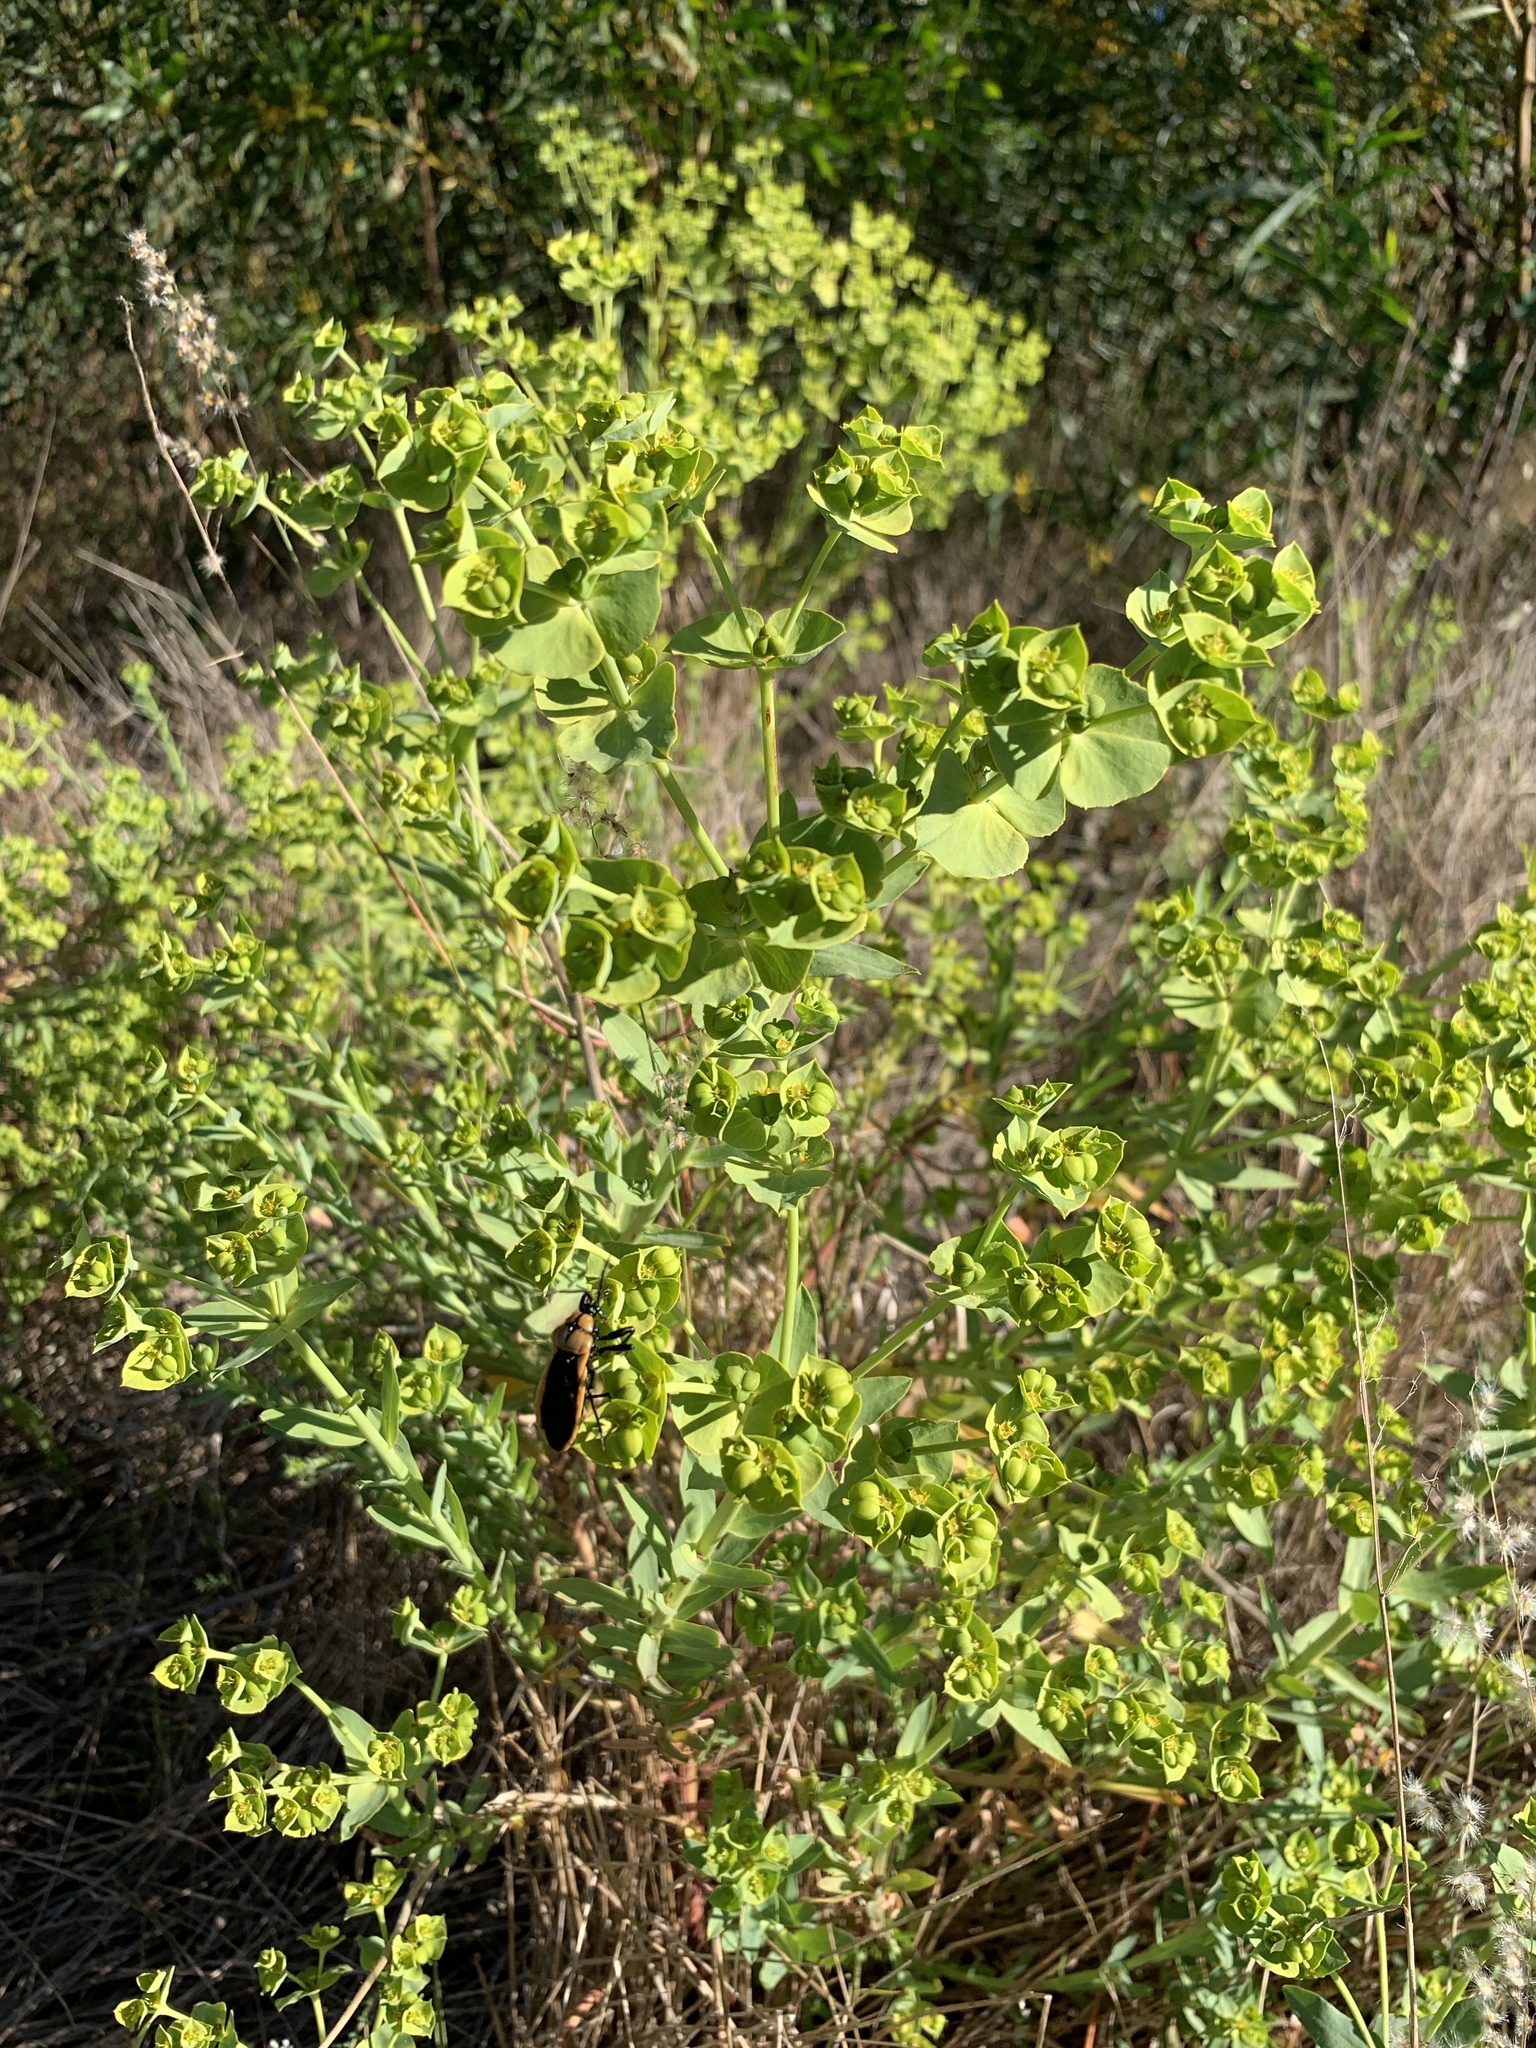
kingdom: Plantae
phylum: Tracheophyta
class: Magnoliopsida
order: Malpighiales
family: Euphorbiaceae
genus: Euphorbia
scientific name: Euphorbia terracina
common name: Geraldton carnation weed
